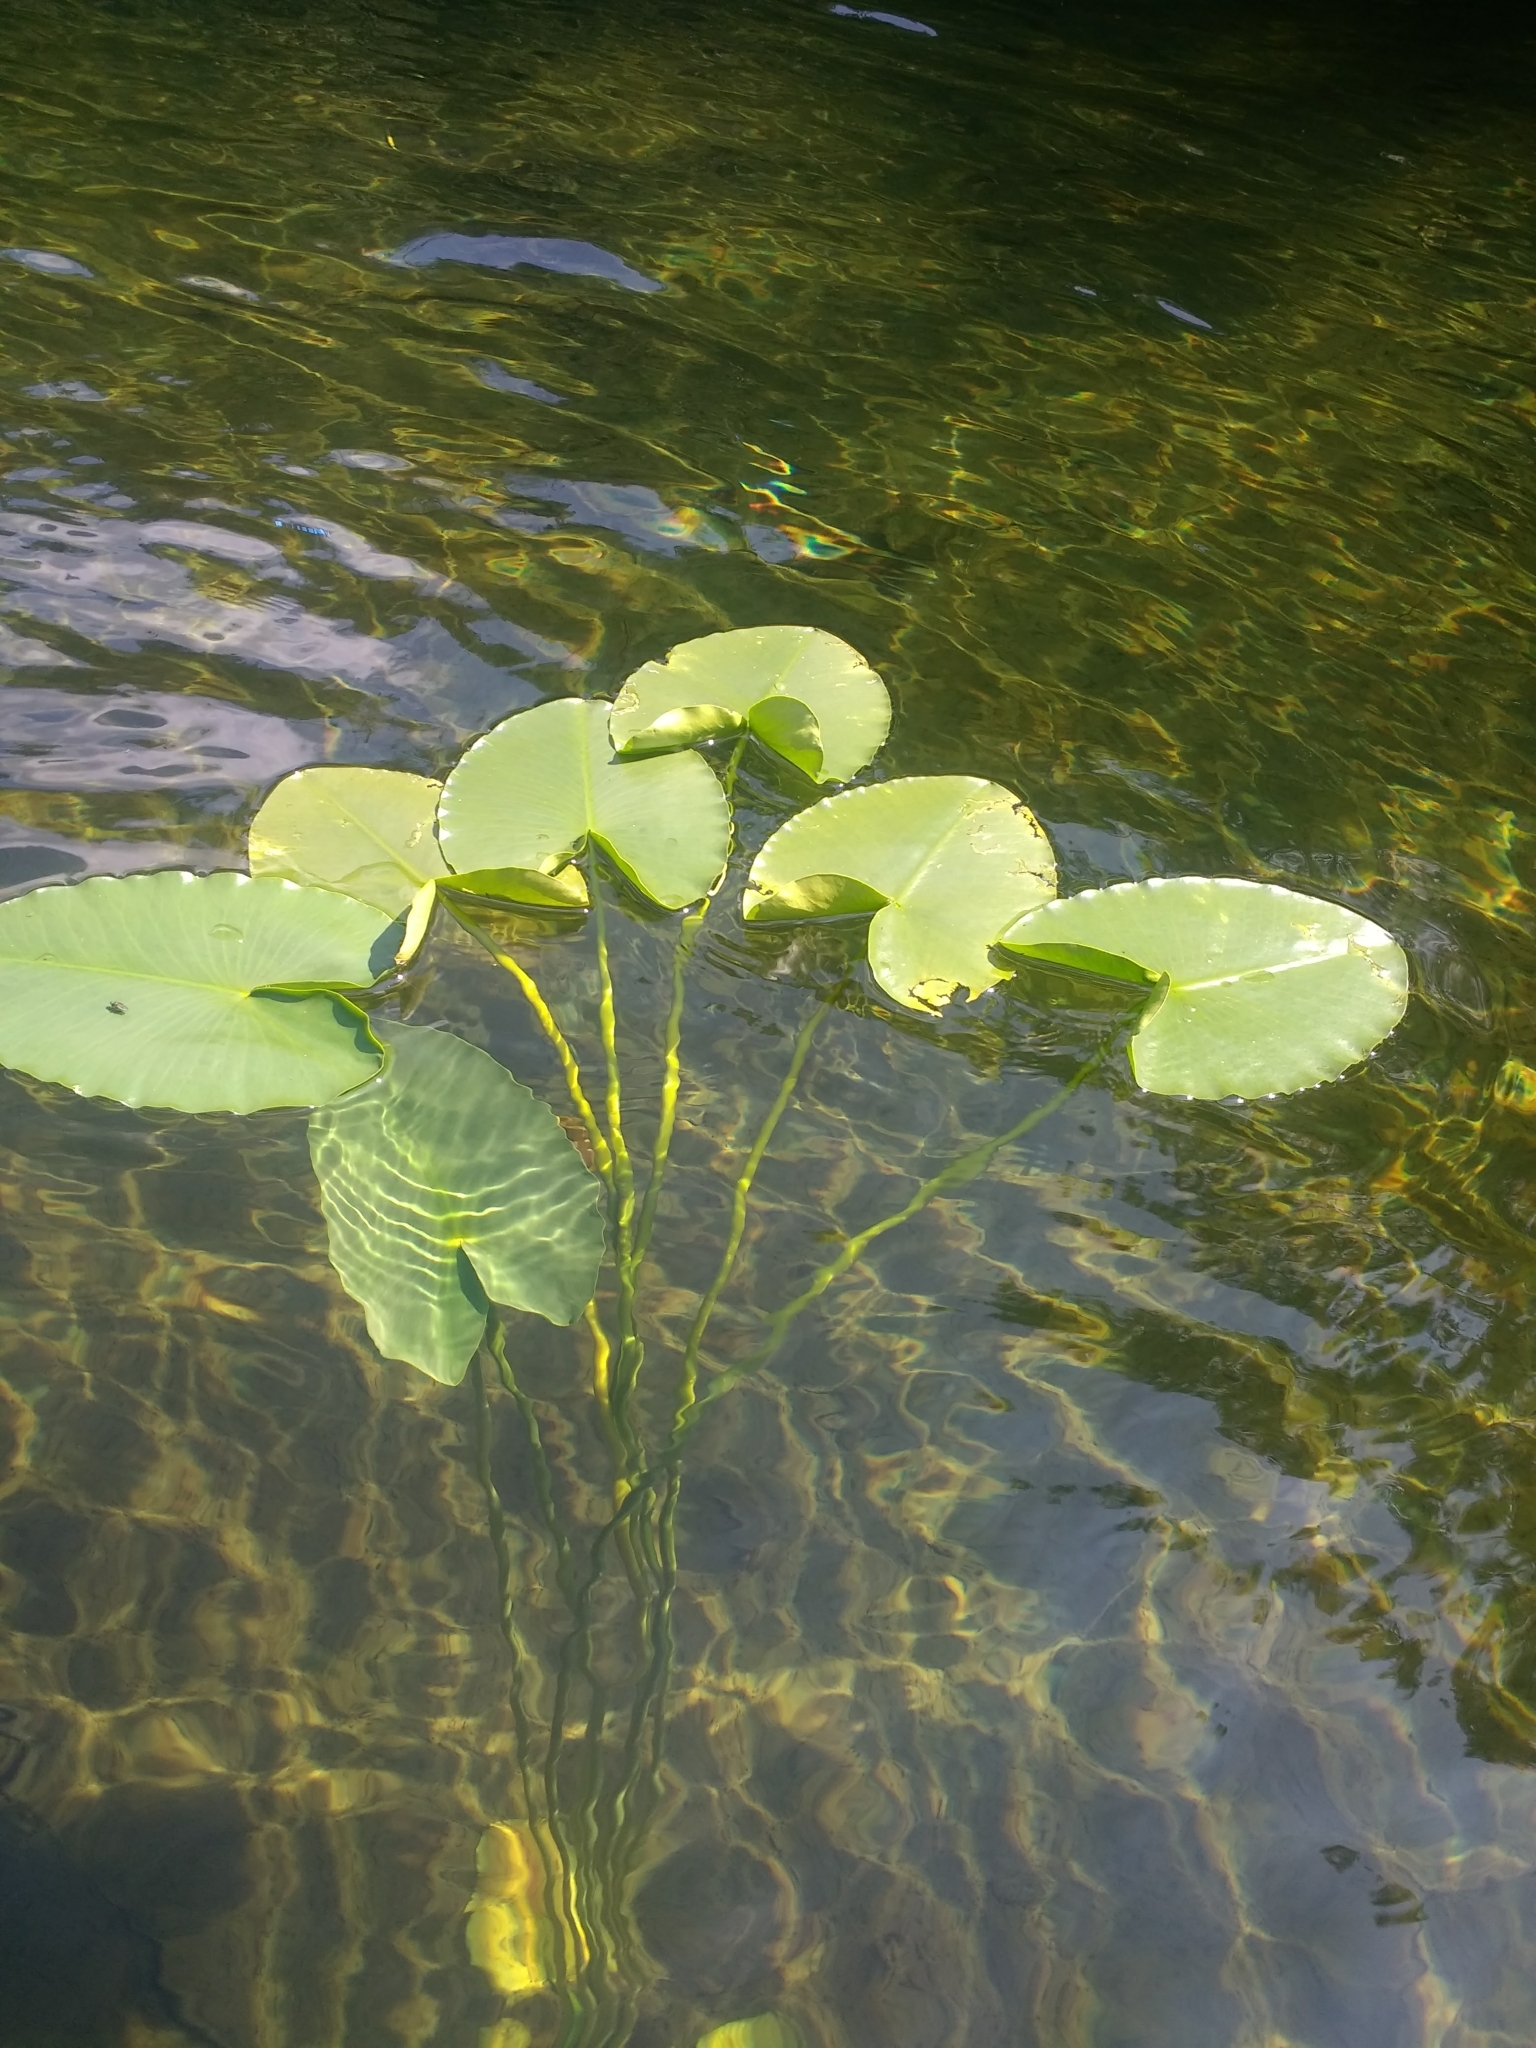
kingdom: Plantae
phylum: Tracheophyta
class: Magnoliopsida
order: Nymphaeales
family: Nymphaeaceae
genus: Nuphar
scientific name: Nuphar polysepala
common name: Rocky mountain cow-lily
